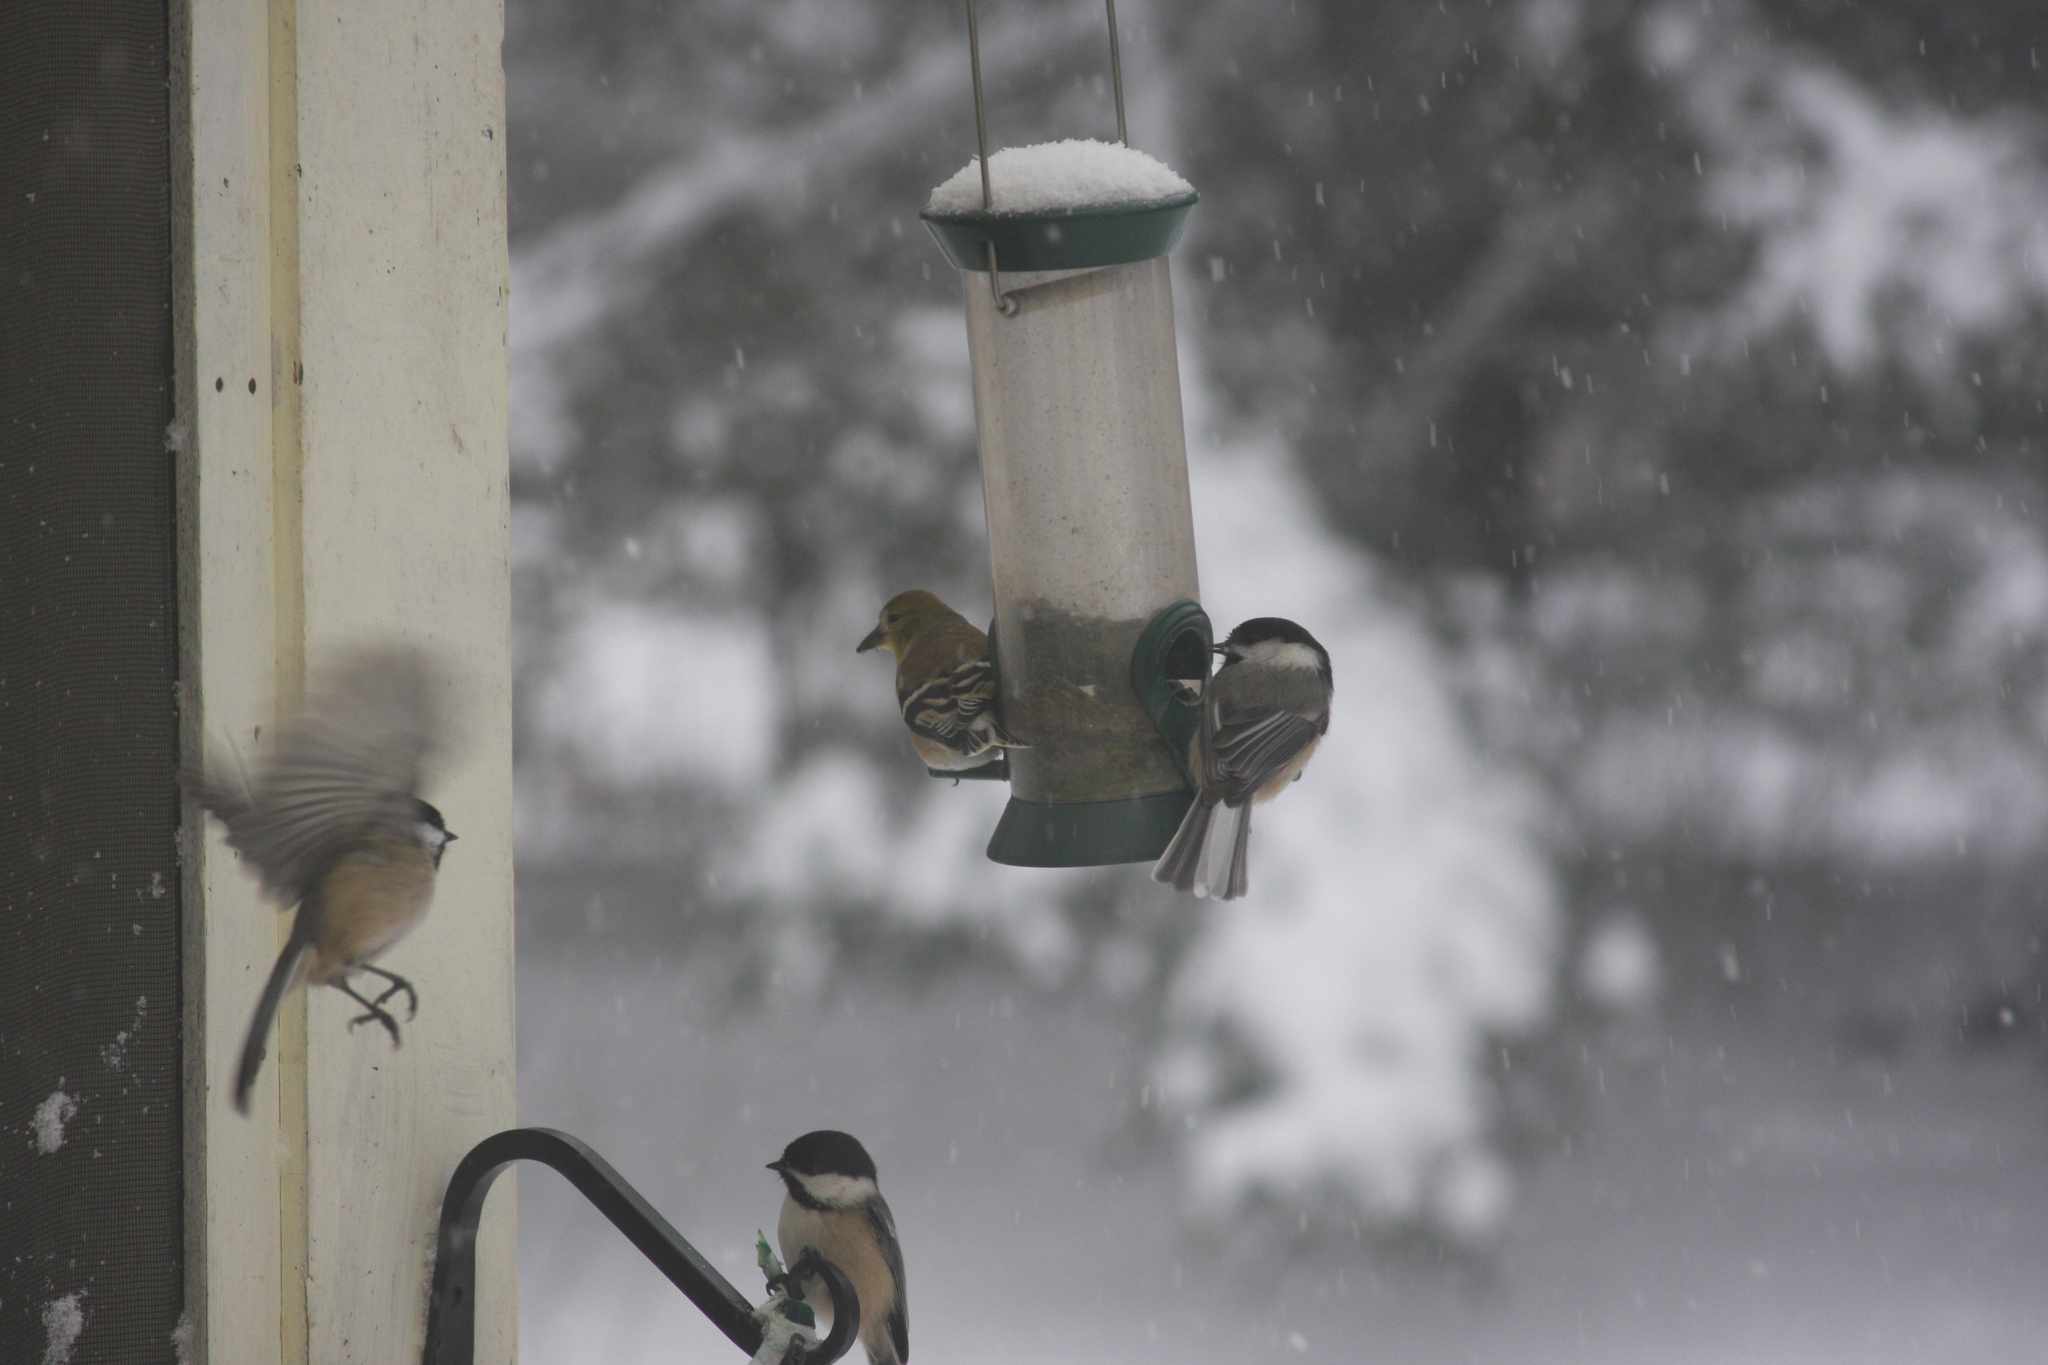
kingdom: Animalia
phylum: Chordata
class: Aves
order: Passeriformes
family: Fringillidae
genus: Spinus
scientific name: Spinus tristis
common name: American goldfinch
